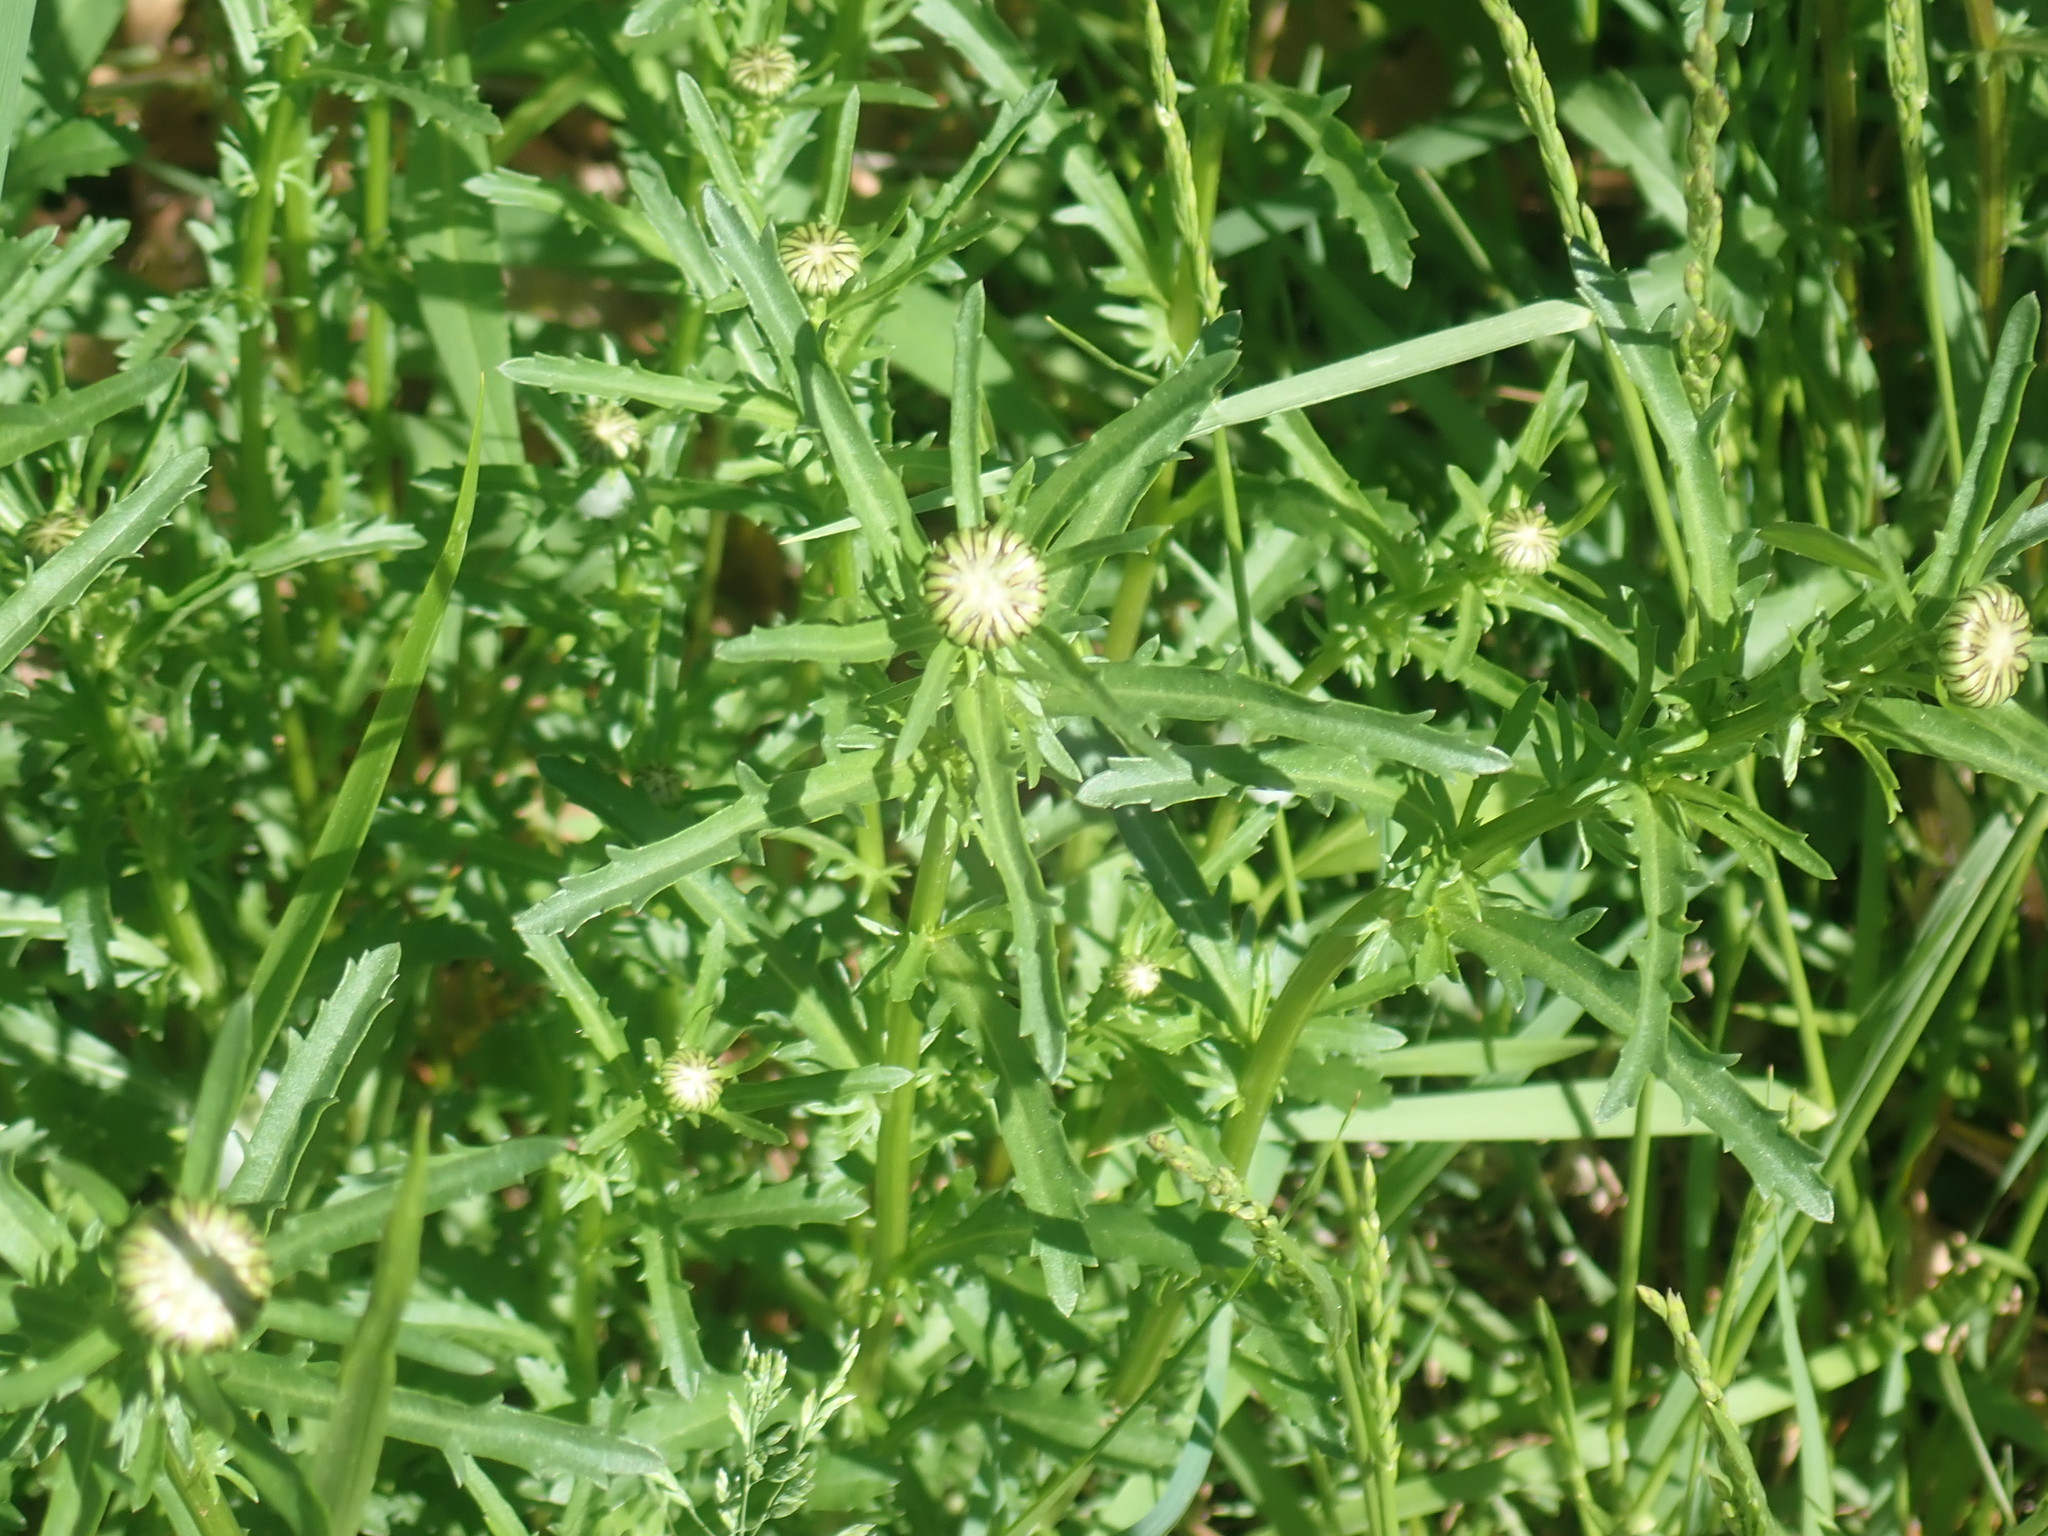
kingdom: Plantae
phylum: Tracheophyta
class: Magnoliopsida
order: Asterales
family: Asteraceae
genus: Leucanthemum
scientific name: Leucanthemum vulgare
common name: Oxeye daisy
